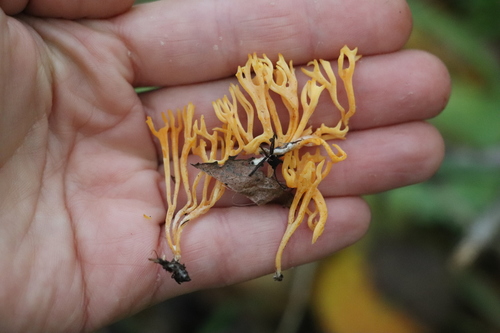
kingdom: Fungi
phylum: Basidiomycota
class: Agaricomycetes
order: Agaricales
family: Clavariaceae
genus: Ramariopsis
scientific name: Ramariopsis crocea
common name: Orange coral
